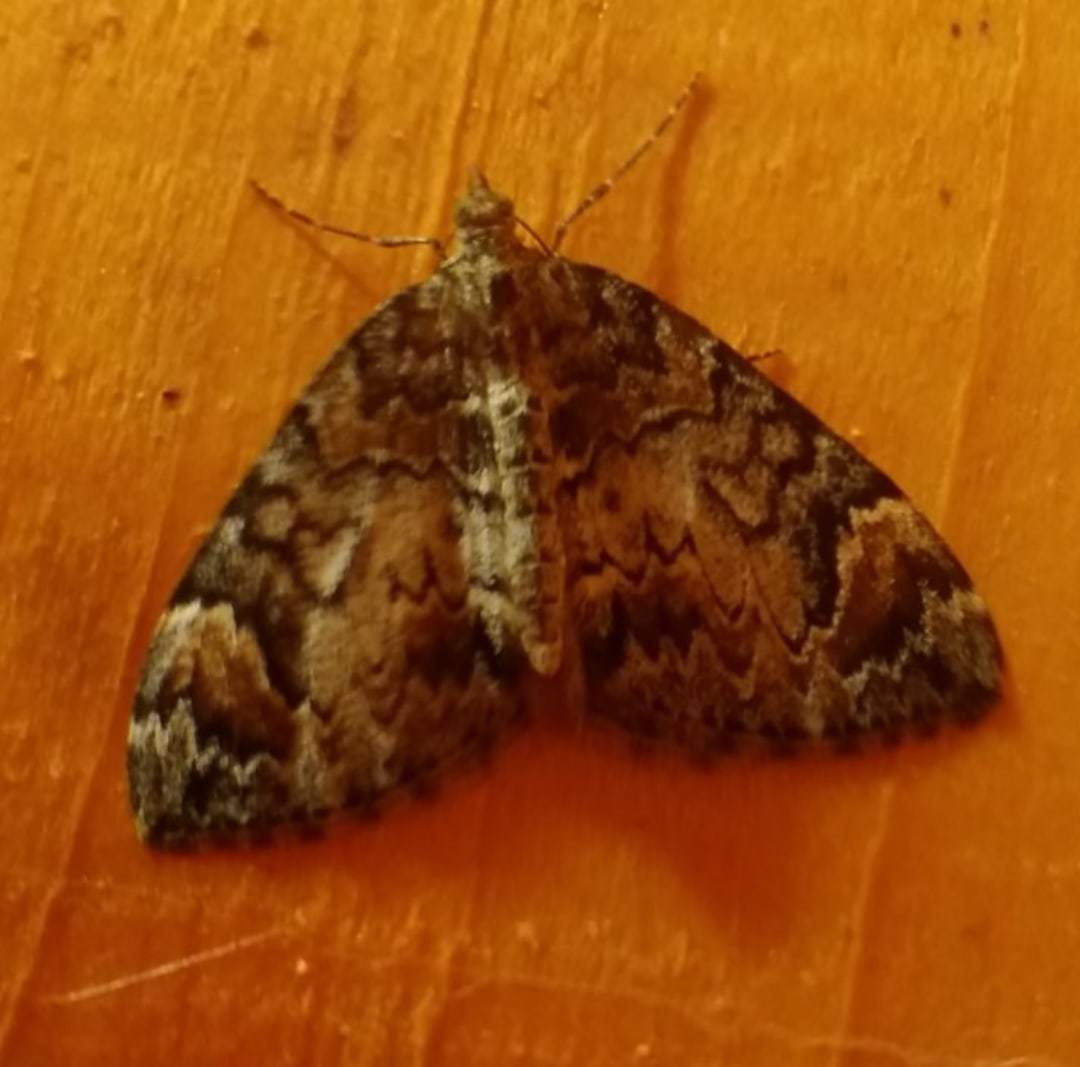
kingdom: Animalia
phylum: Arthropoda
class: Insecta
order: Lepidoptera
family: Geometridae
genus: Dysstroma
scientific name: Dysstroma citrata
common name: Dark marbled carpet
